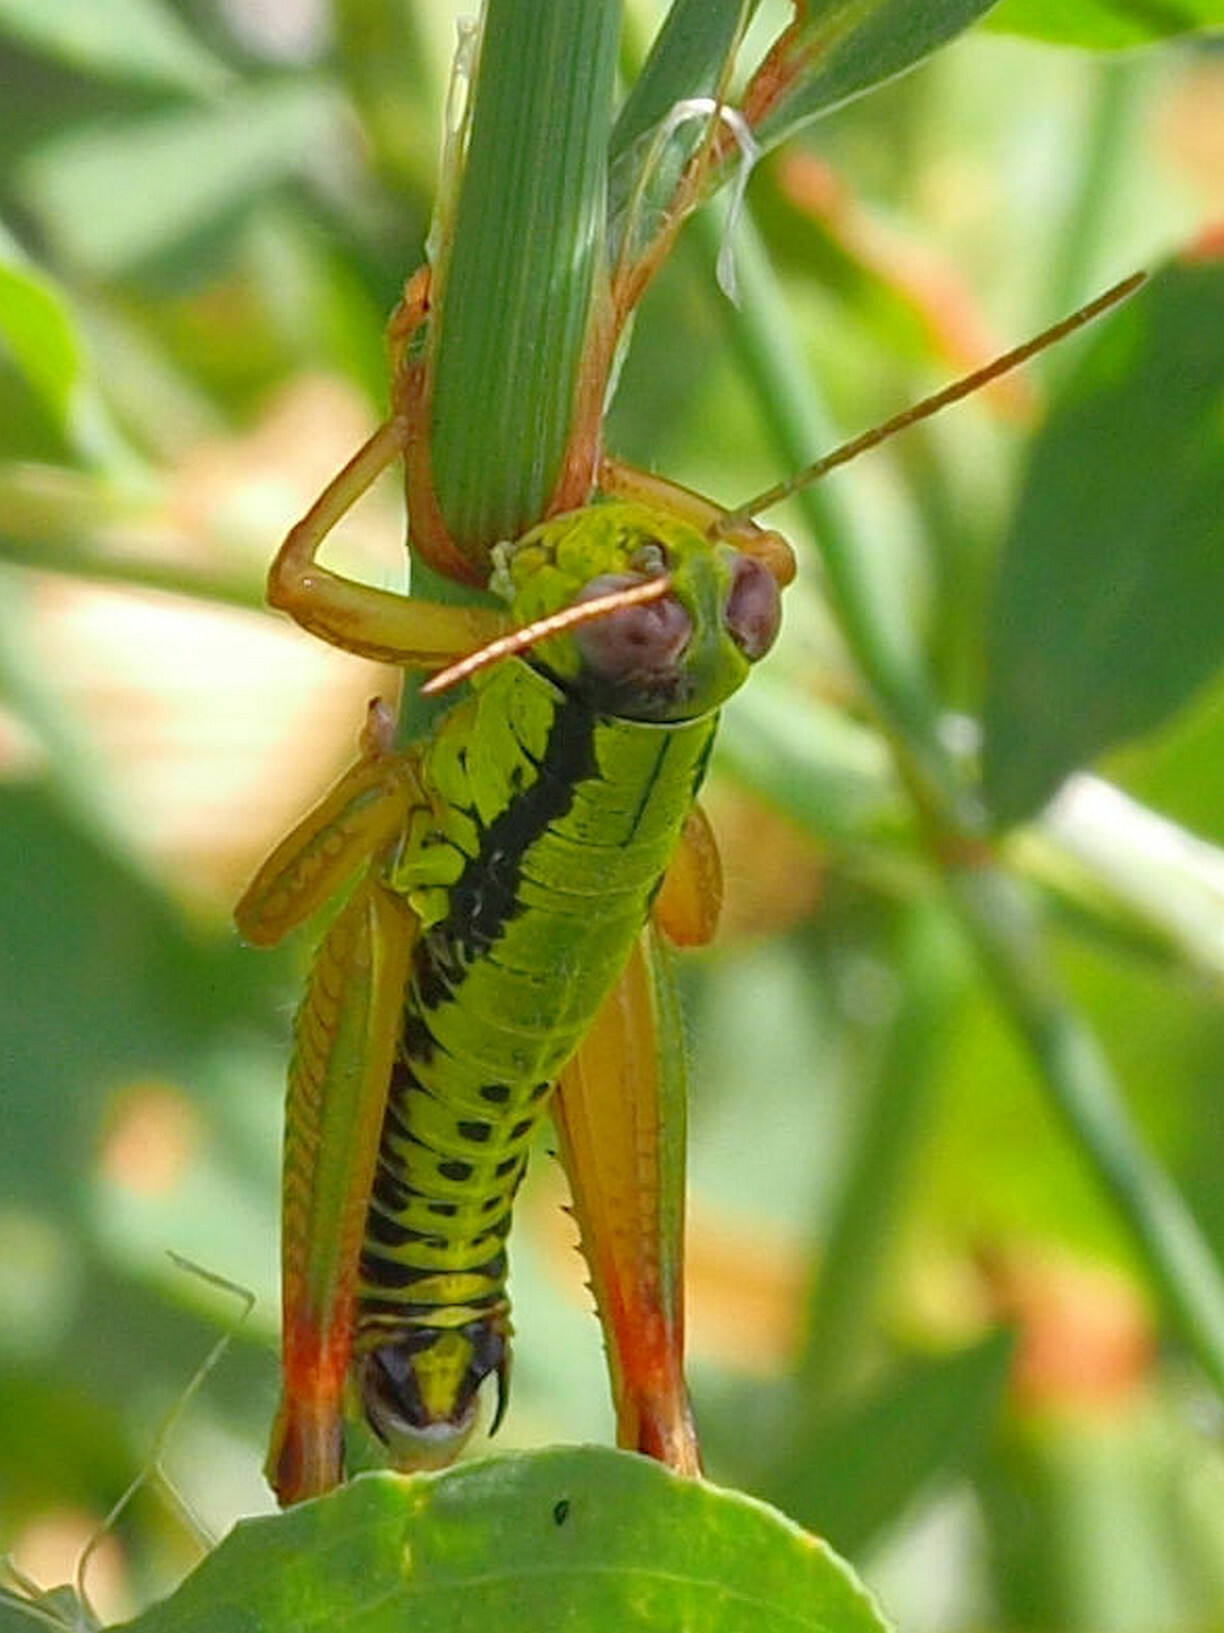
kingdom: Animalia
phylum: Arthropoda
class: Insecta
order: Orthoptera
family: Acrididae
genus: Micropodisma
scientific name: Micropodisma salamandra
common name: Foothill mountain grasshopper
